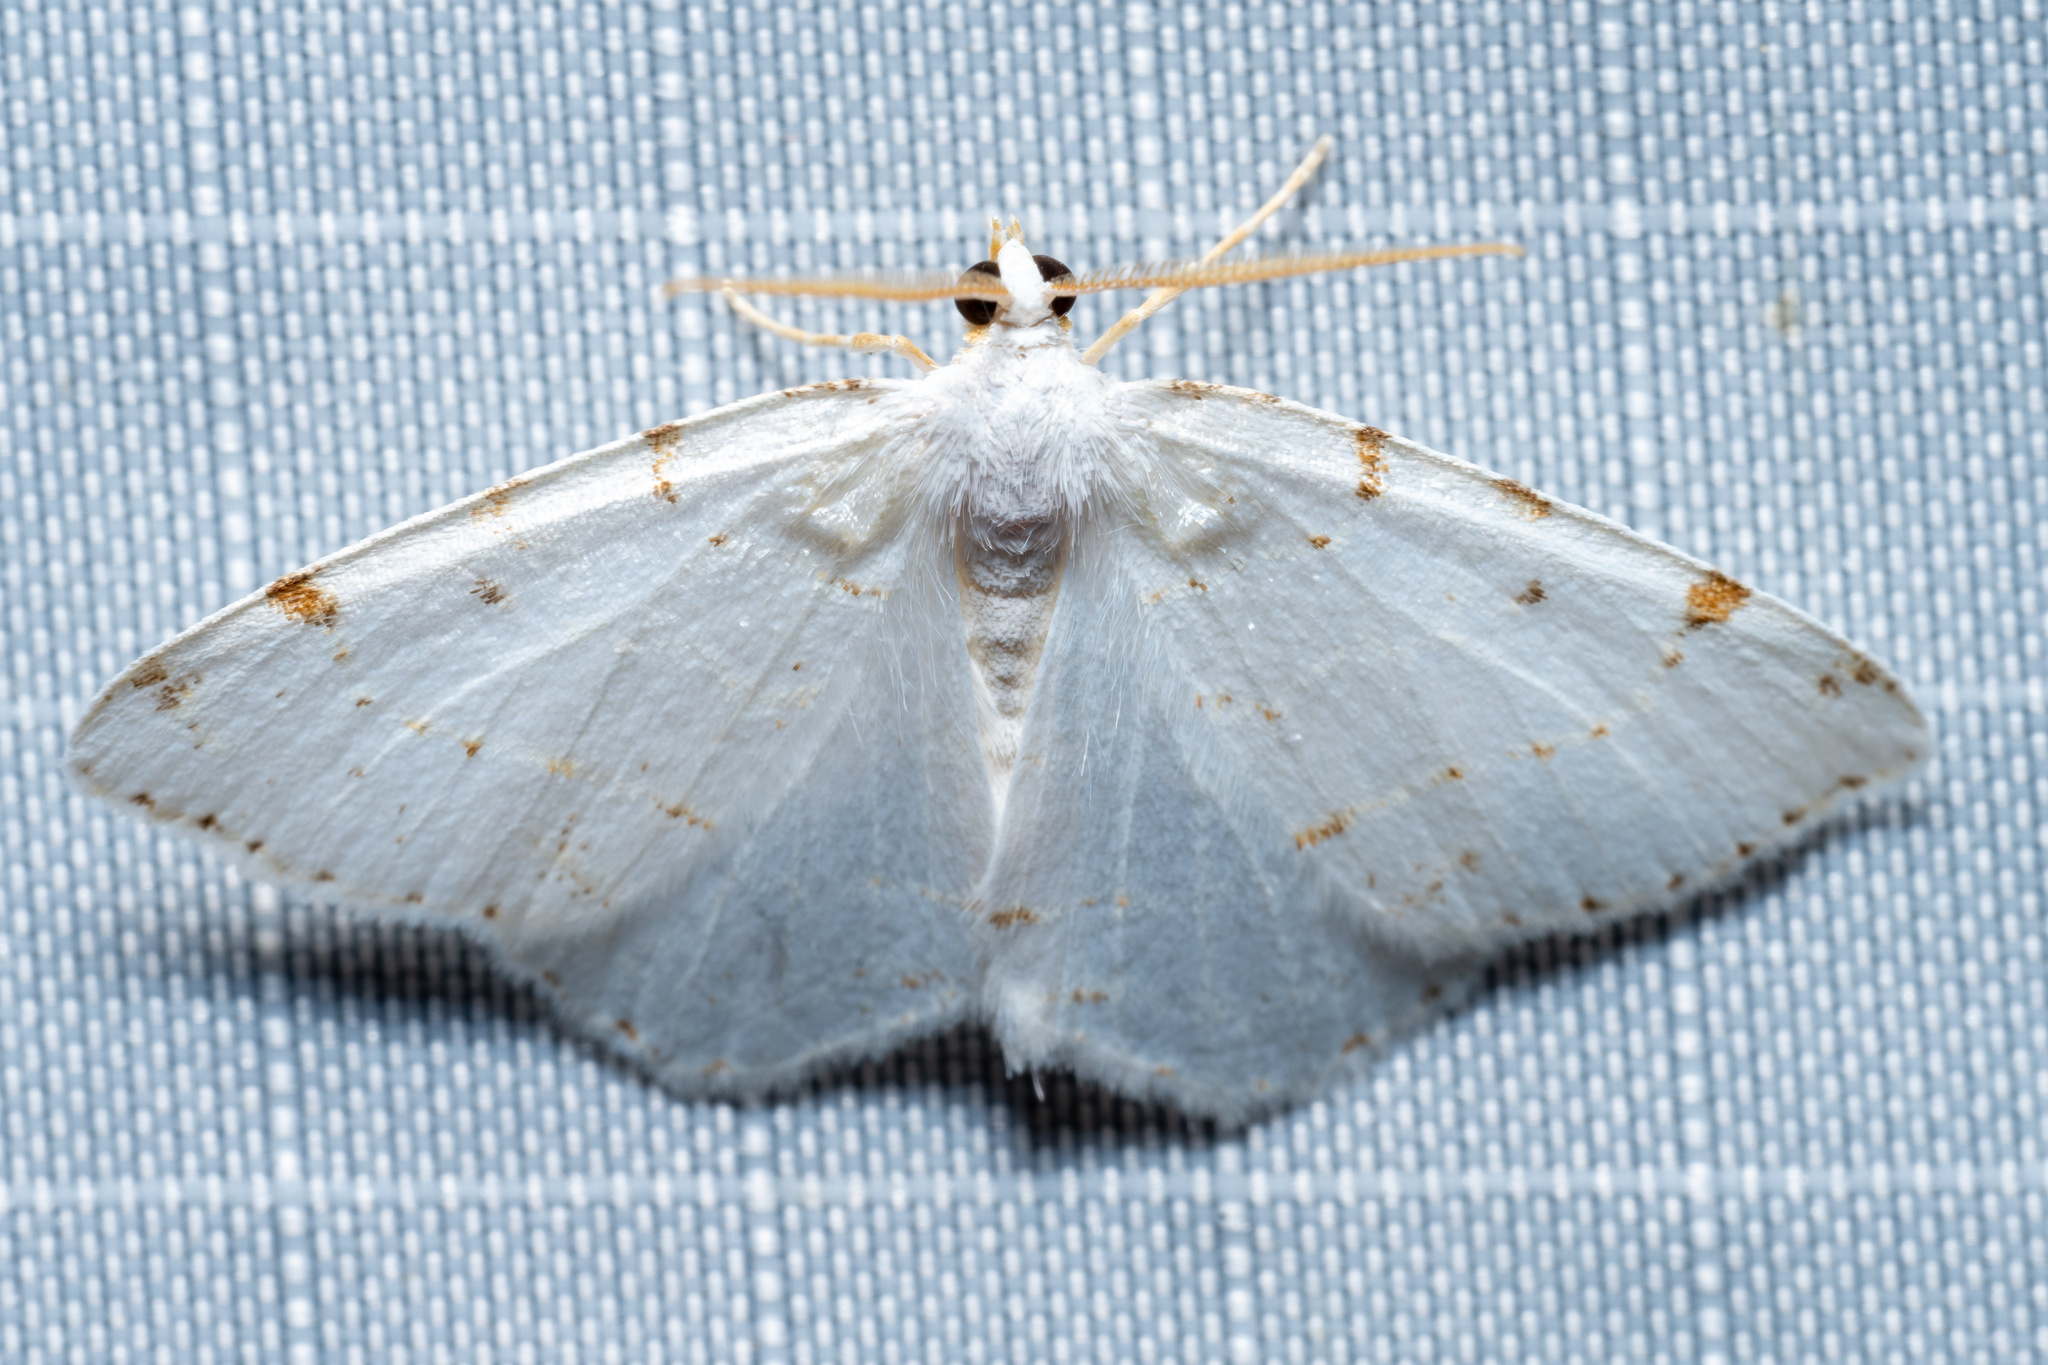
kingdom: Animalia
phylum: Arthropoda
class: Insecta
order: Lepidoptera
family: Geometridae
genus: Macaria
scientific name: Macaria pustularia
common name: Lesser maple spanworm moth
